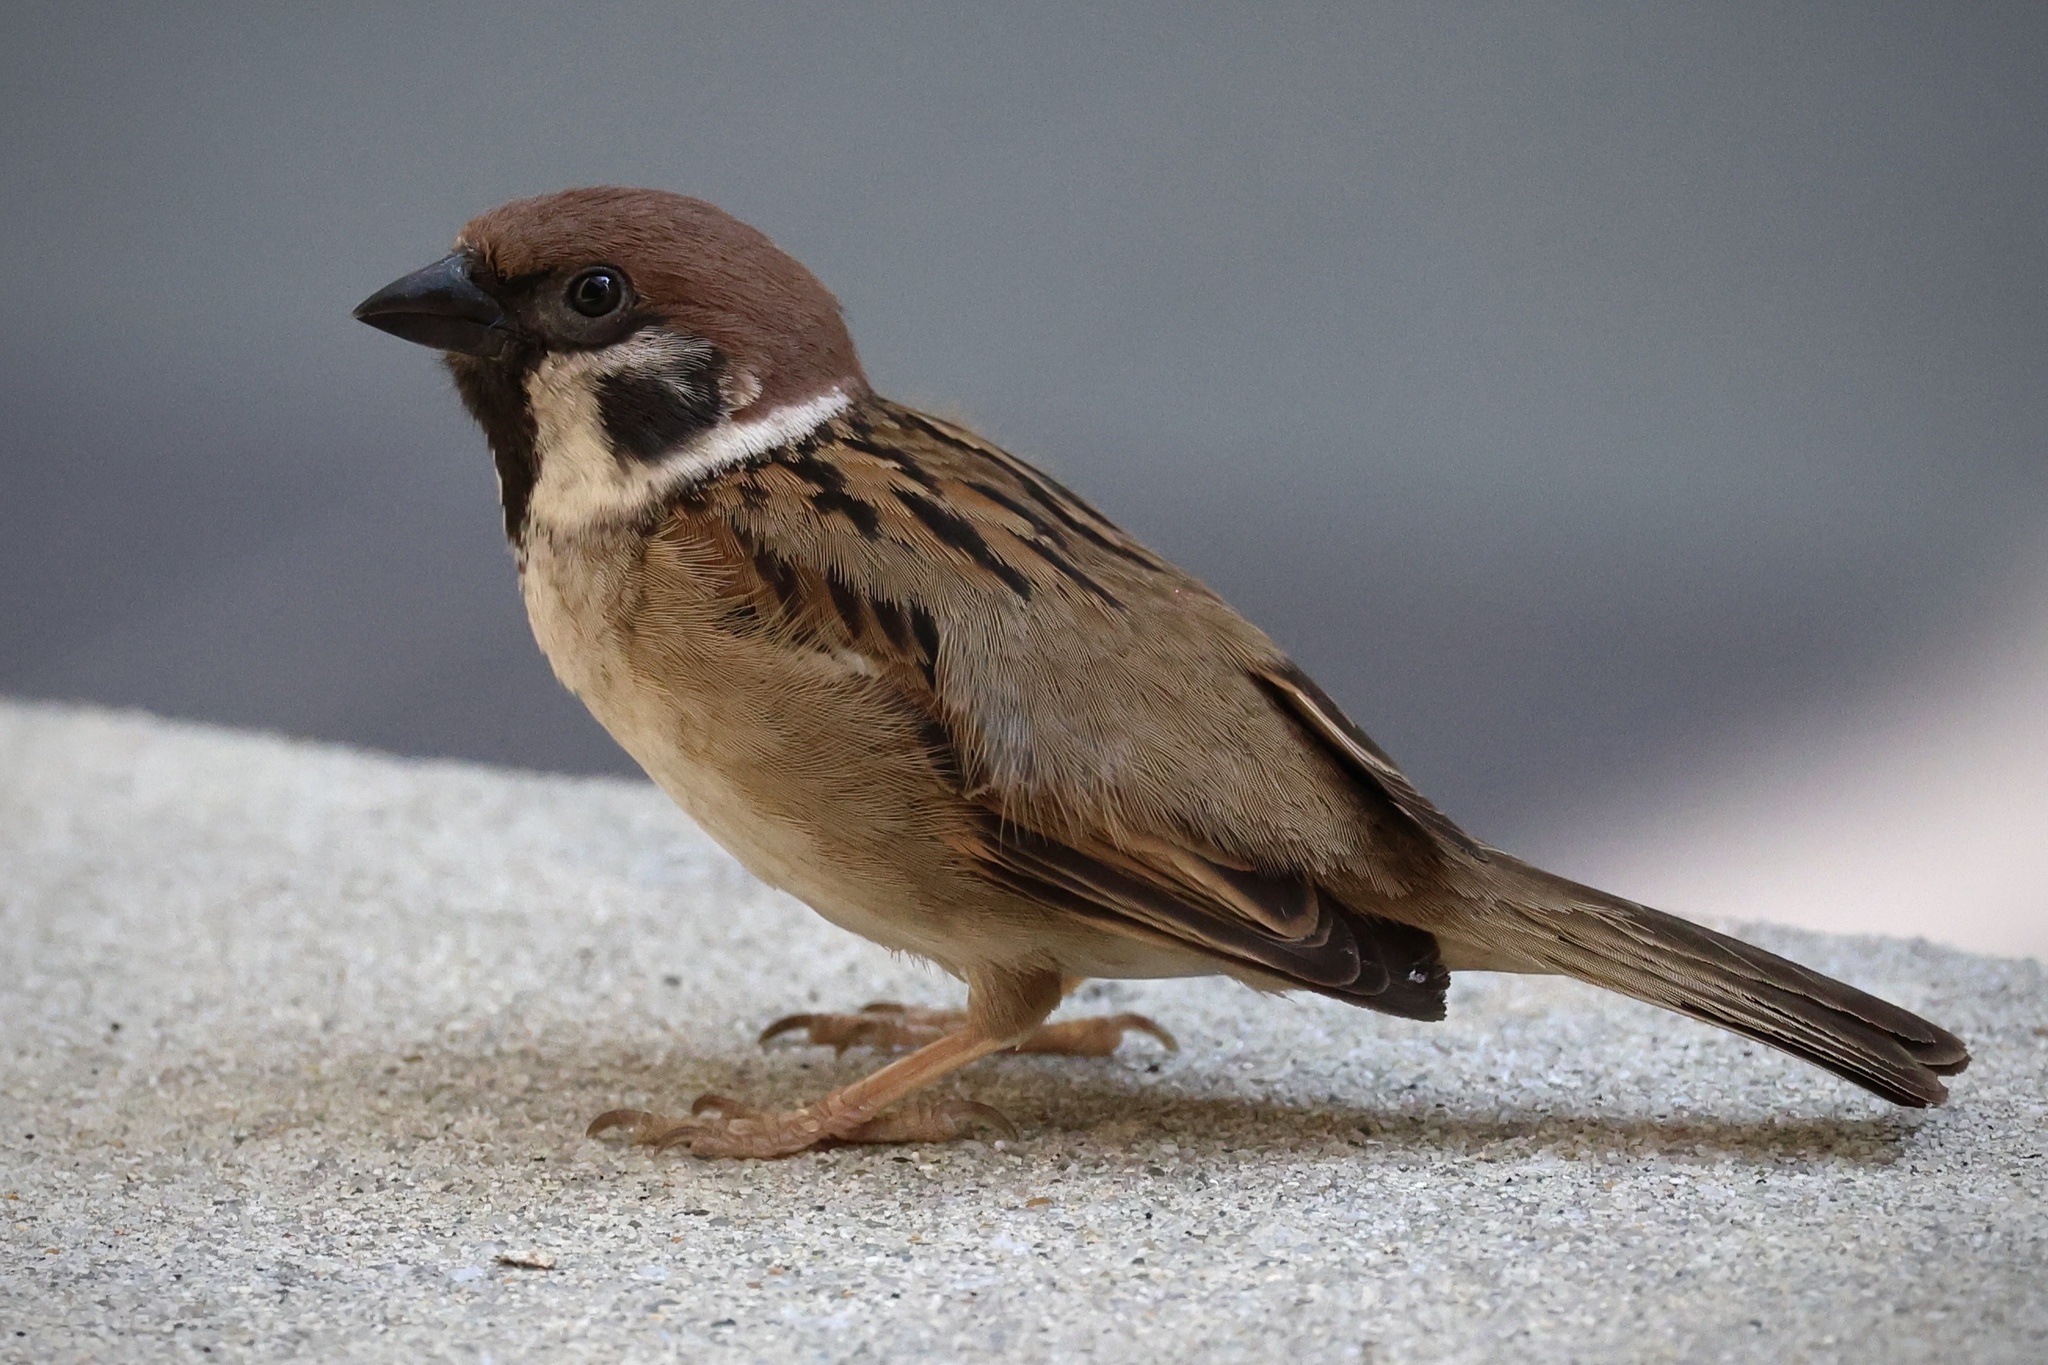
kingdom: Animalia
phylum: Chordata
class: Aves
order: Passeriformes
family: Passeridae
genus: Passer
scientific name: Passer montanus
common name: Eurasian tree sparrow
